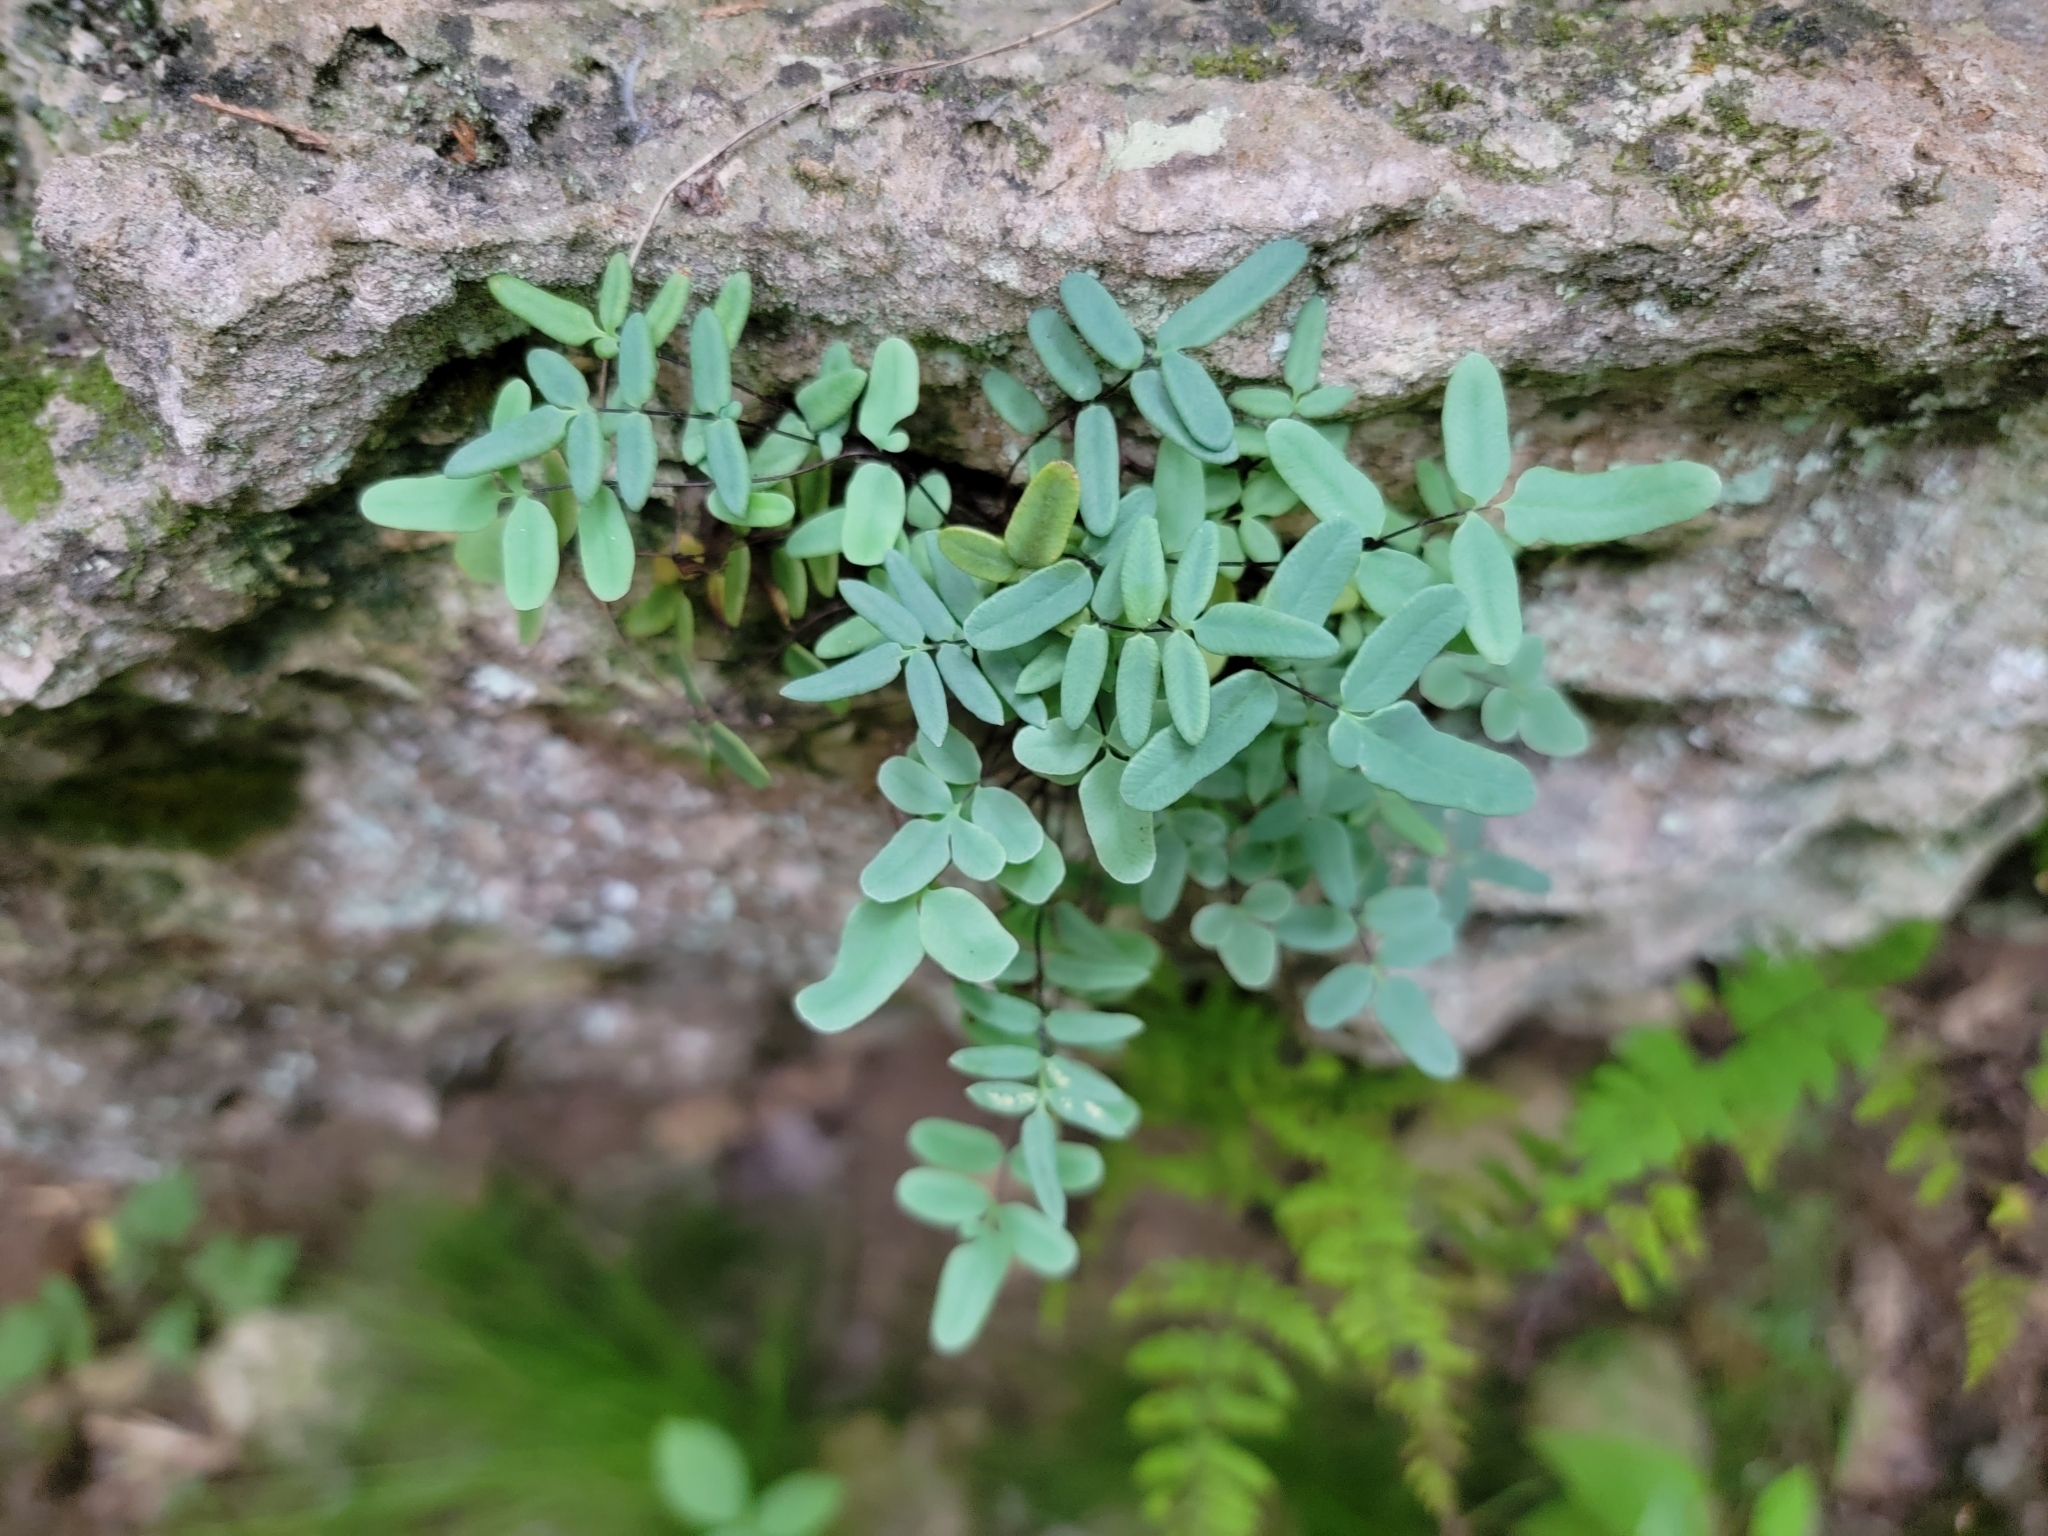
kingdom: Plantae
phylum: Tracheophyta
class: Polypodiopsida
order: Polypodiales
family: Pteridaceae
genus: Pellaea
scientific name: Pellaea glabella
